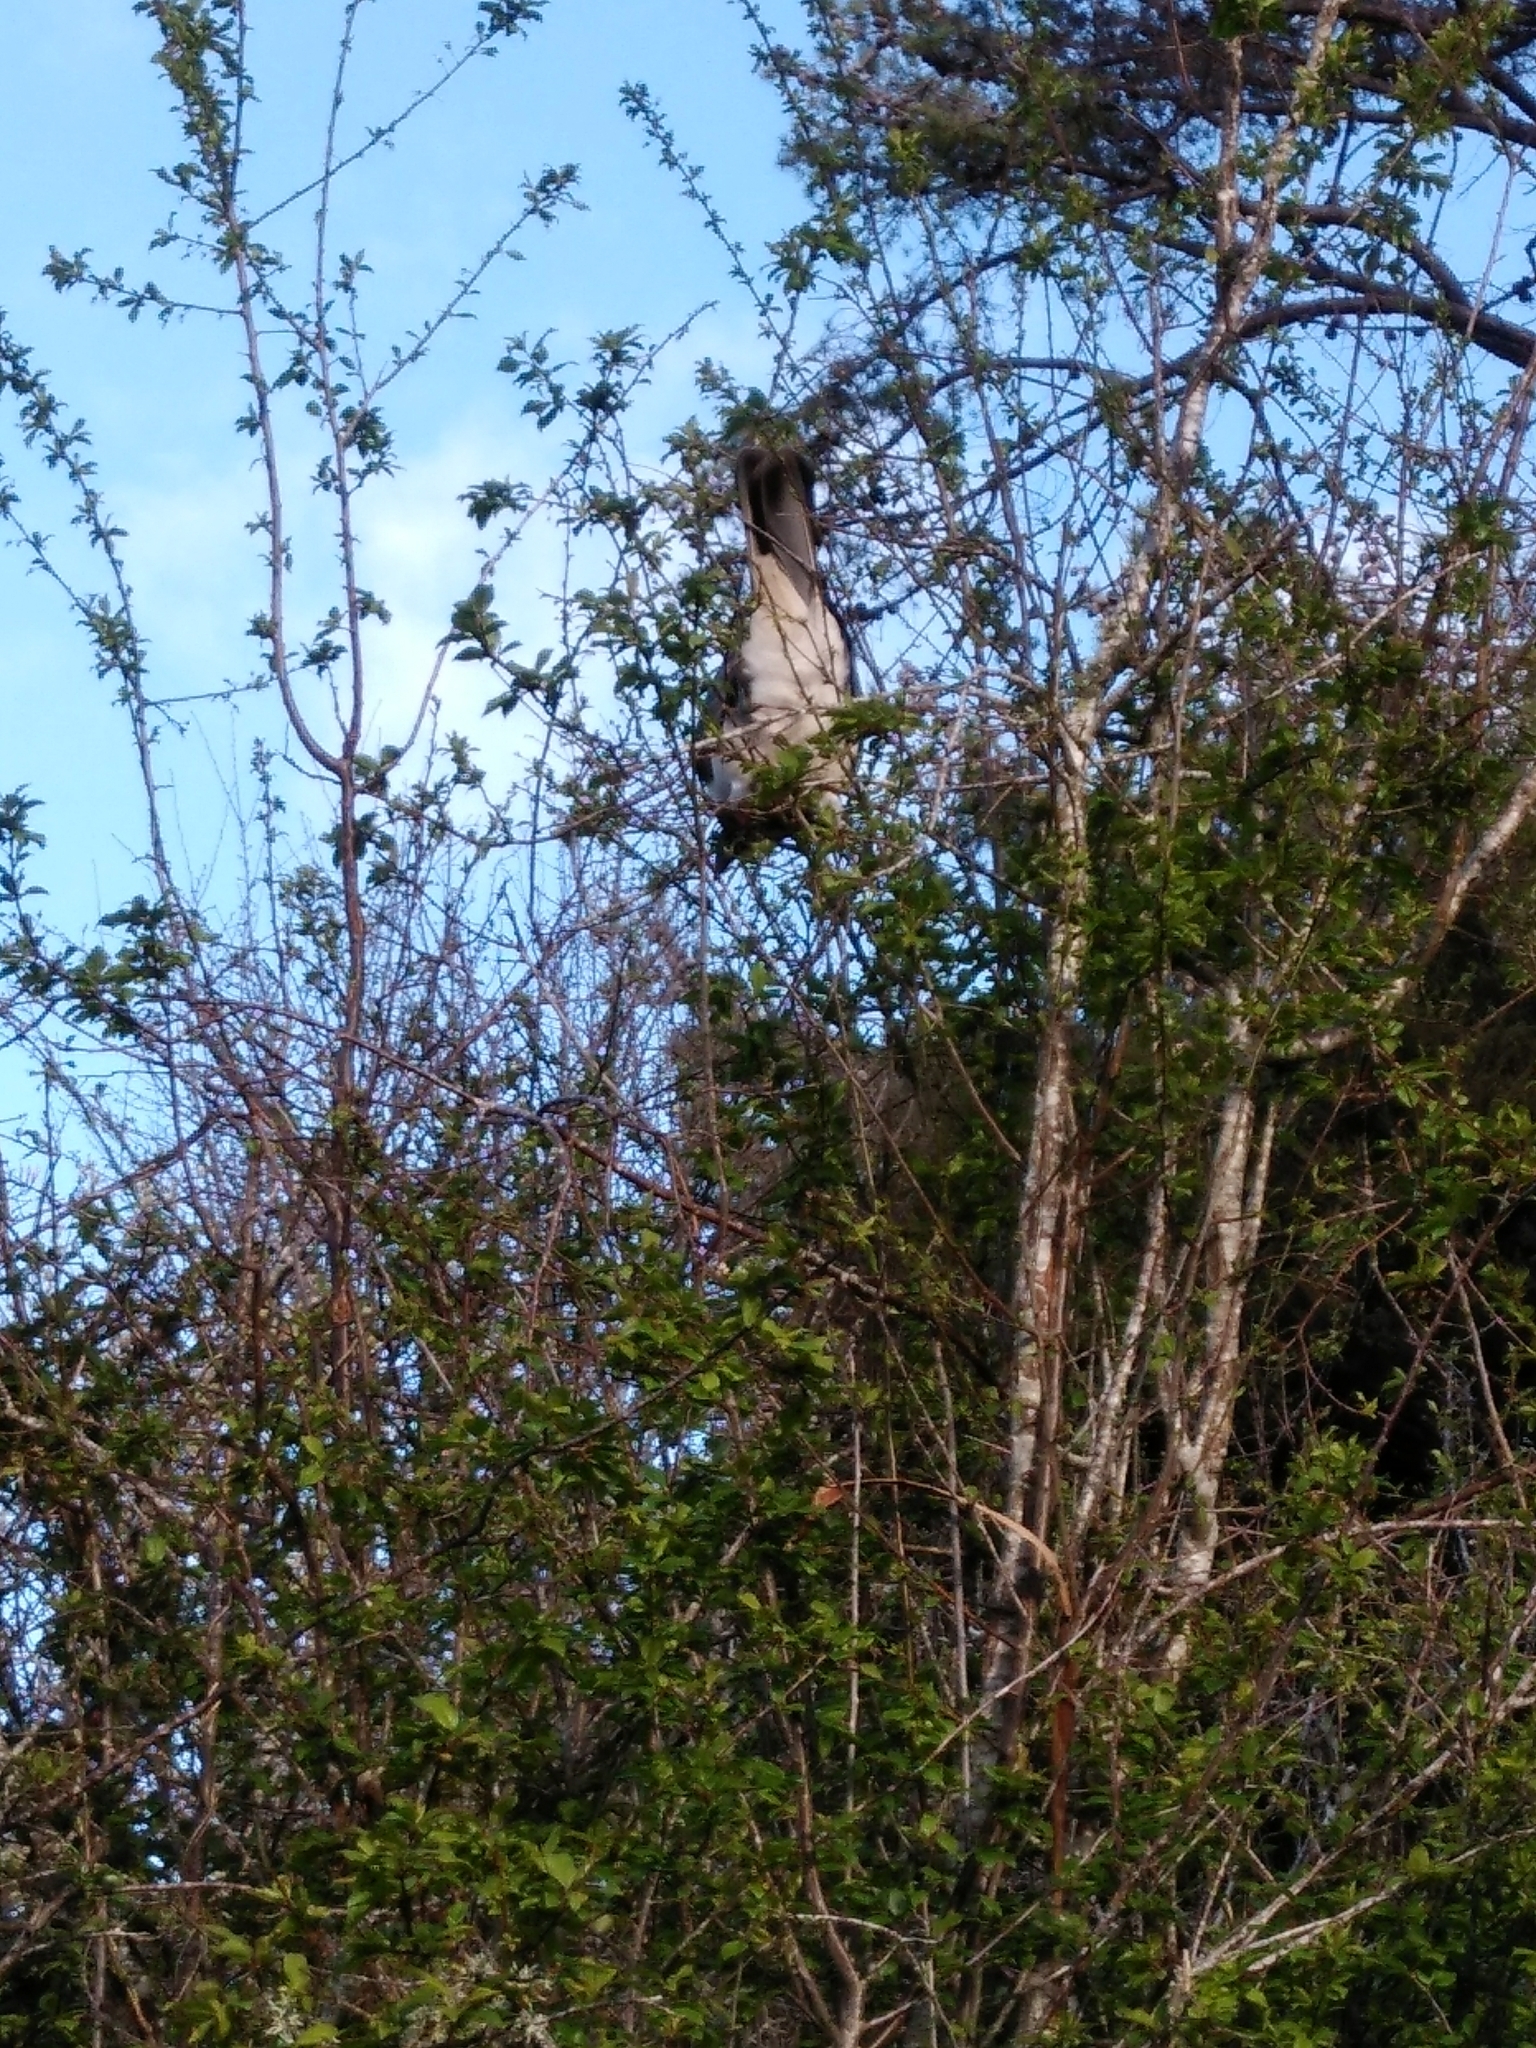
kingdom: Animalia
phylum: Chordata
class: Aves
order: Columbiformes
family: Columbidae
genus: Hemiphaga
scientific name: Hemiphaga novaeseelandiae
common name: New zealand pigeon
